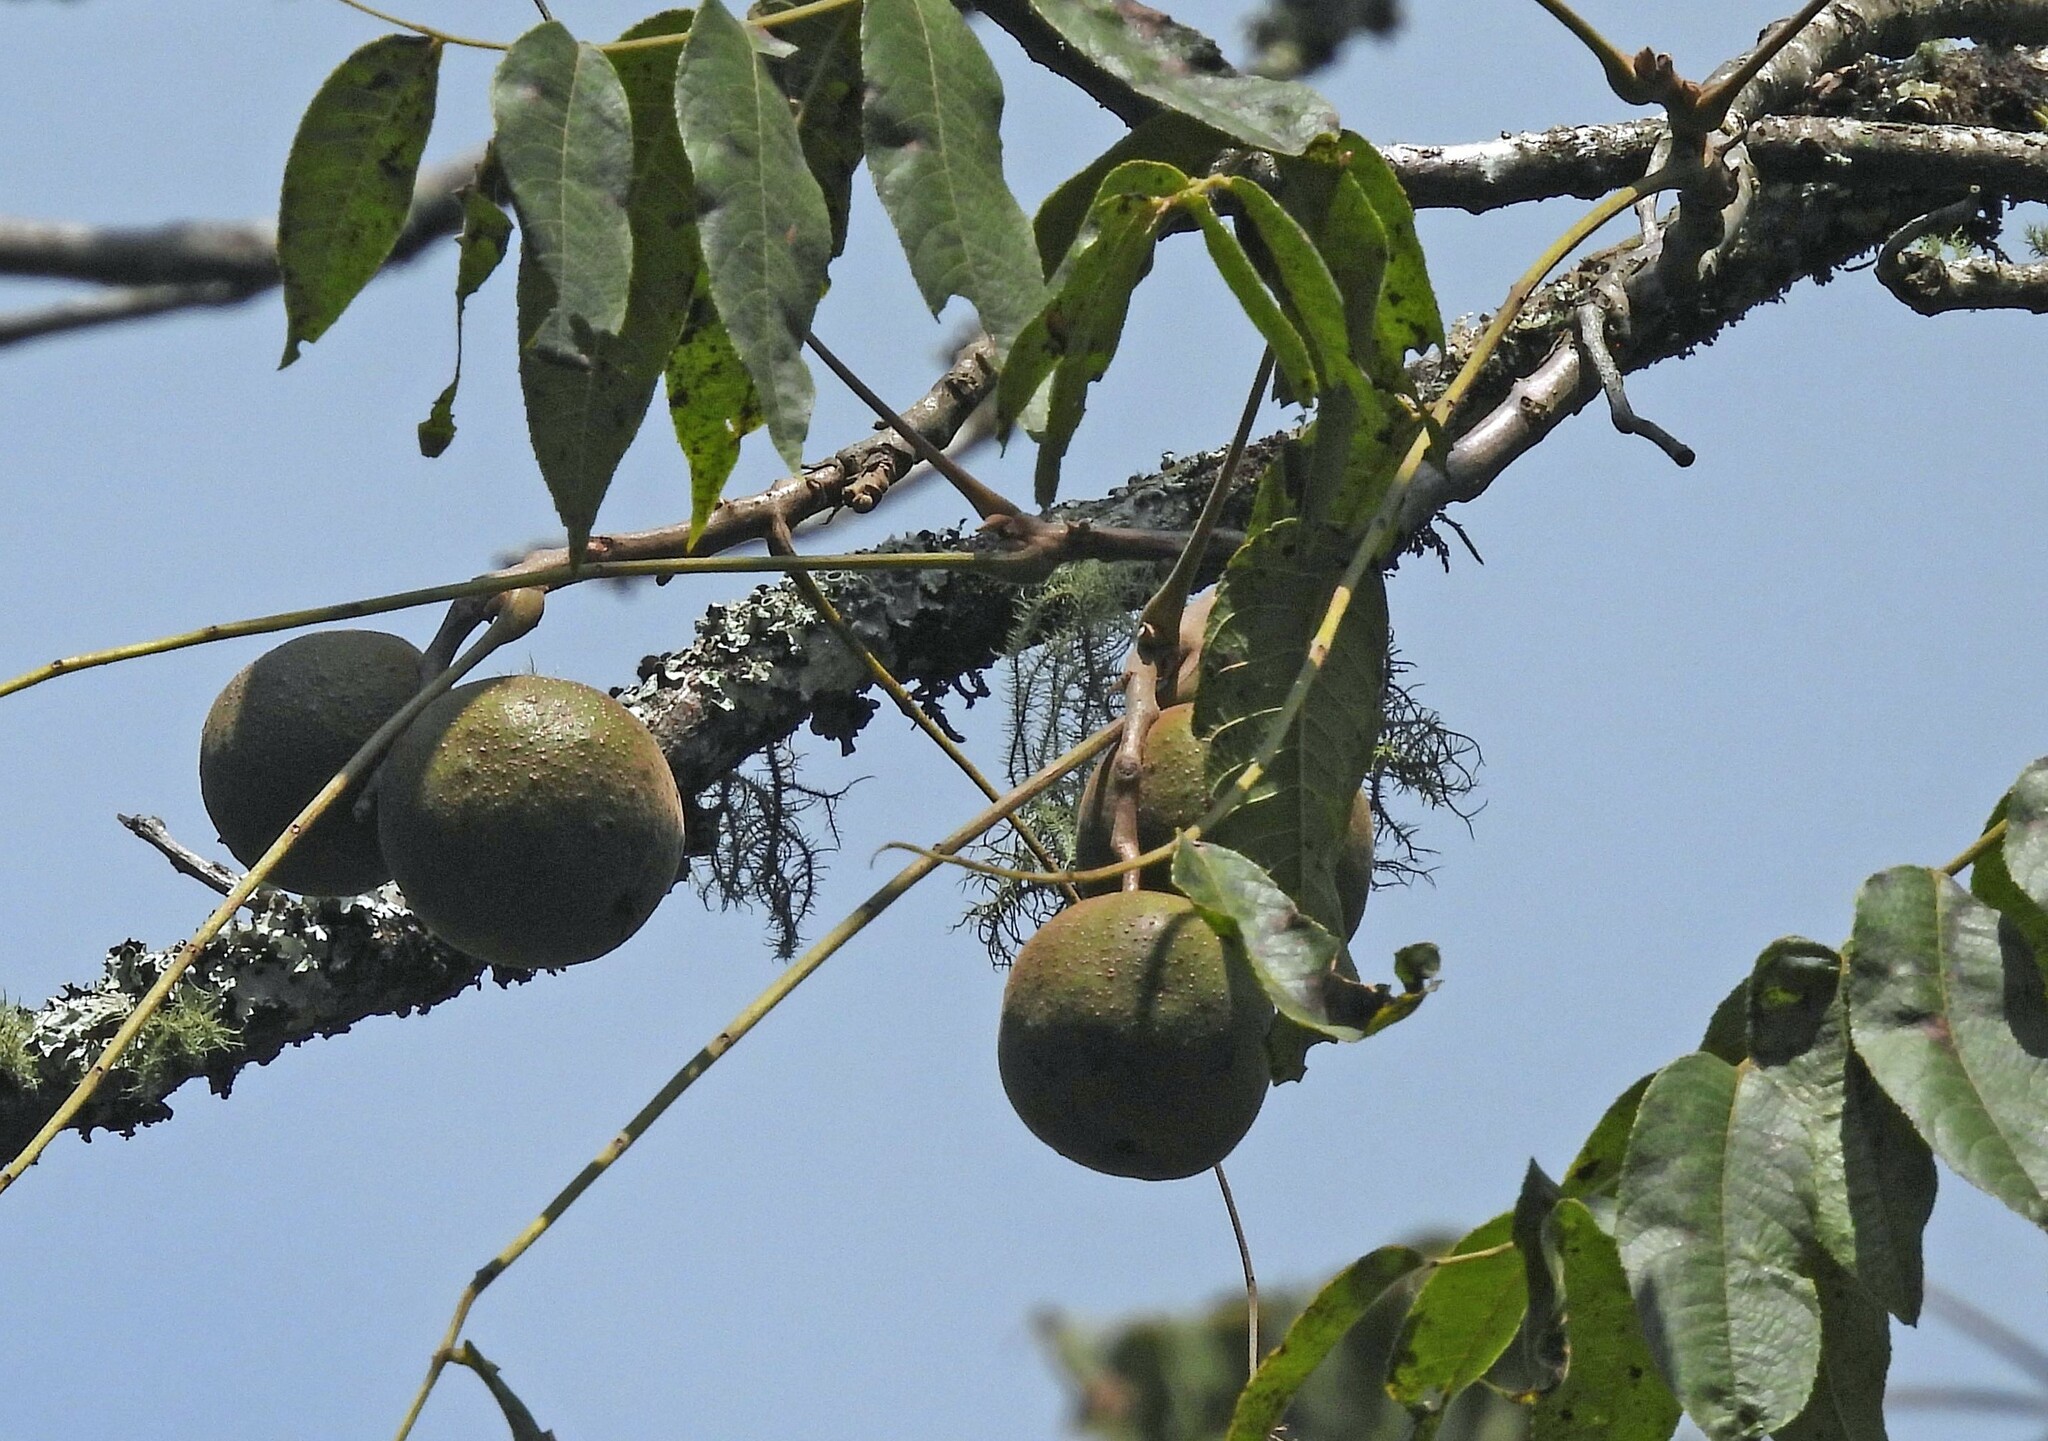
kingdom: Plantae
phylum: Tracheophyta
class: Magnoliopsida
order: Fagales
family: Juglandaceae
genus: Juglans
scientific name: Juglans australis
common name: Argentine walnut
